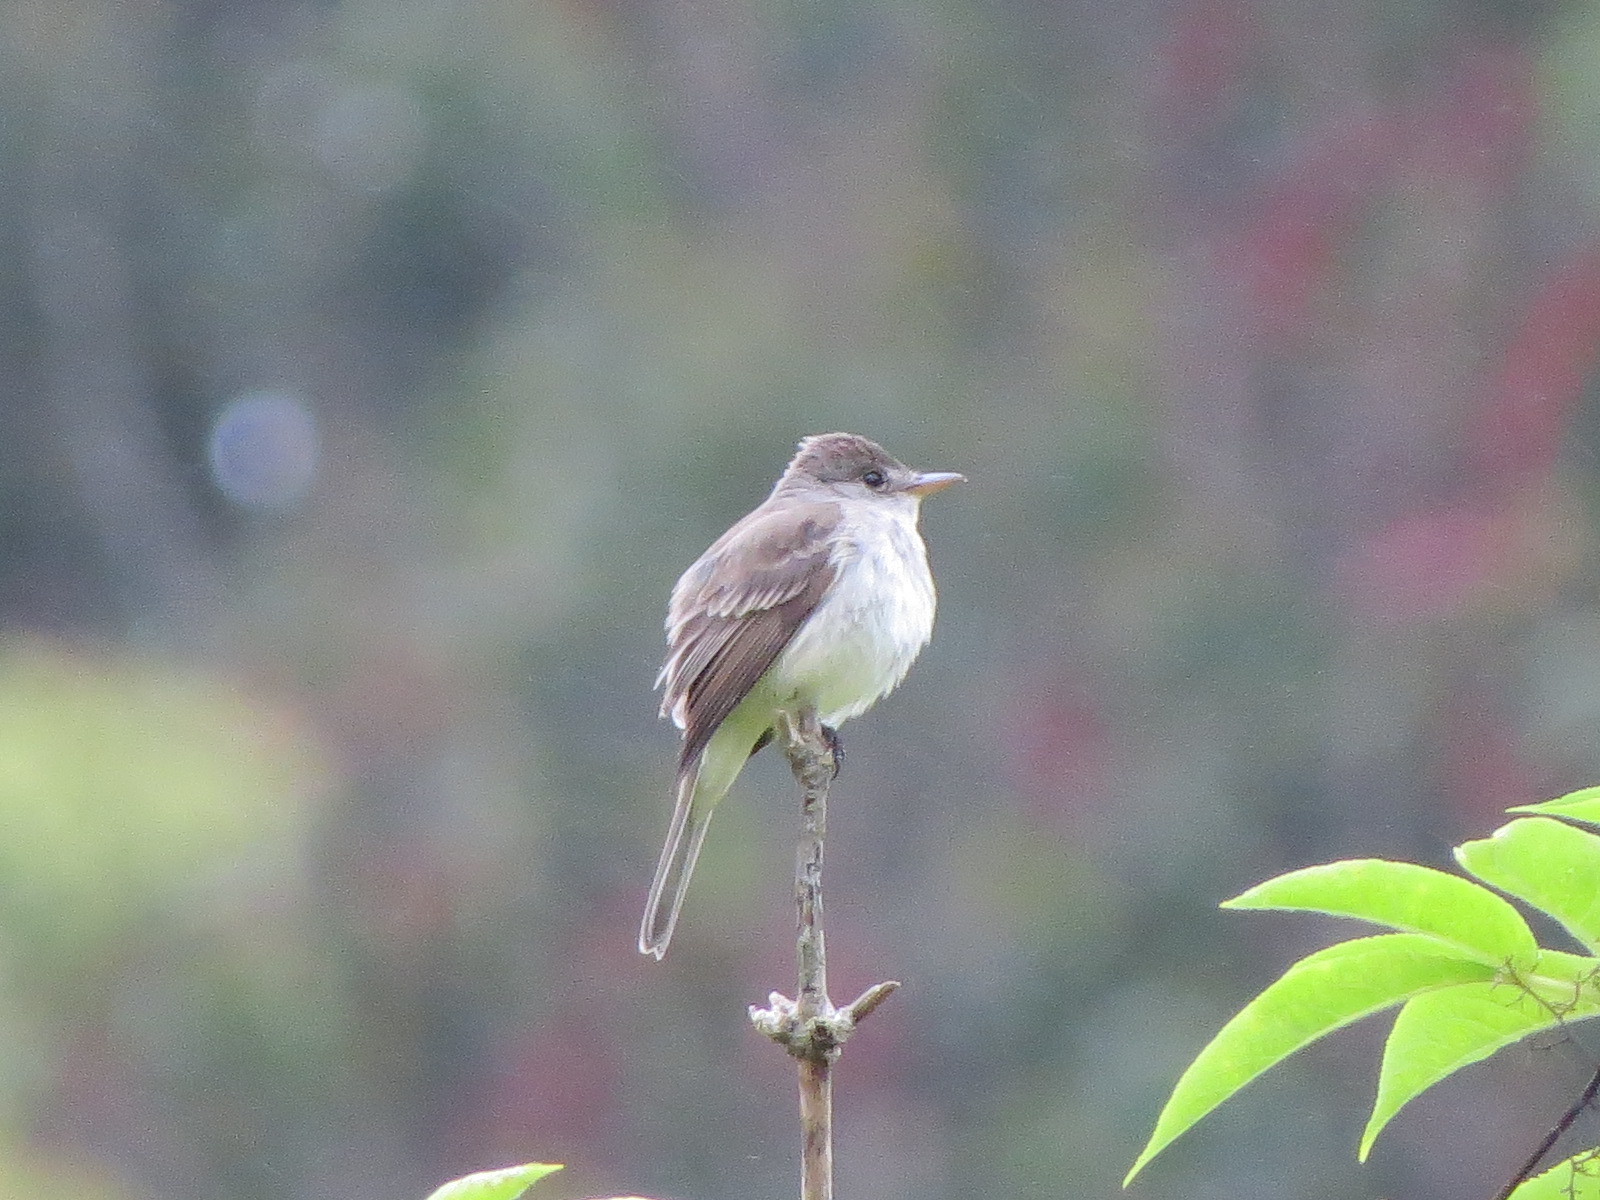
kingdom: Animalia
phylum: Chordata
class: Aves
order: Passeriformes
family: Tyrannidae
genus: Empidonax
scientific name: Empidonax traillii
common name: Willow flycatcher
